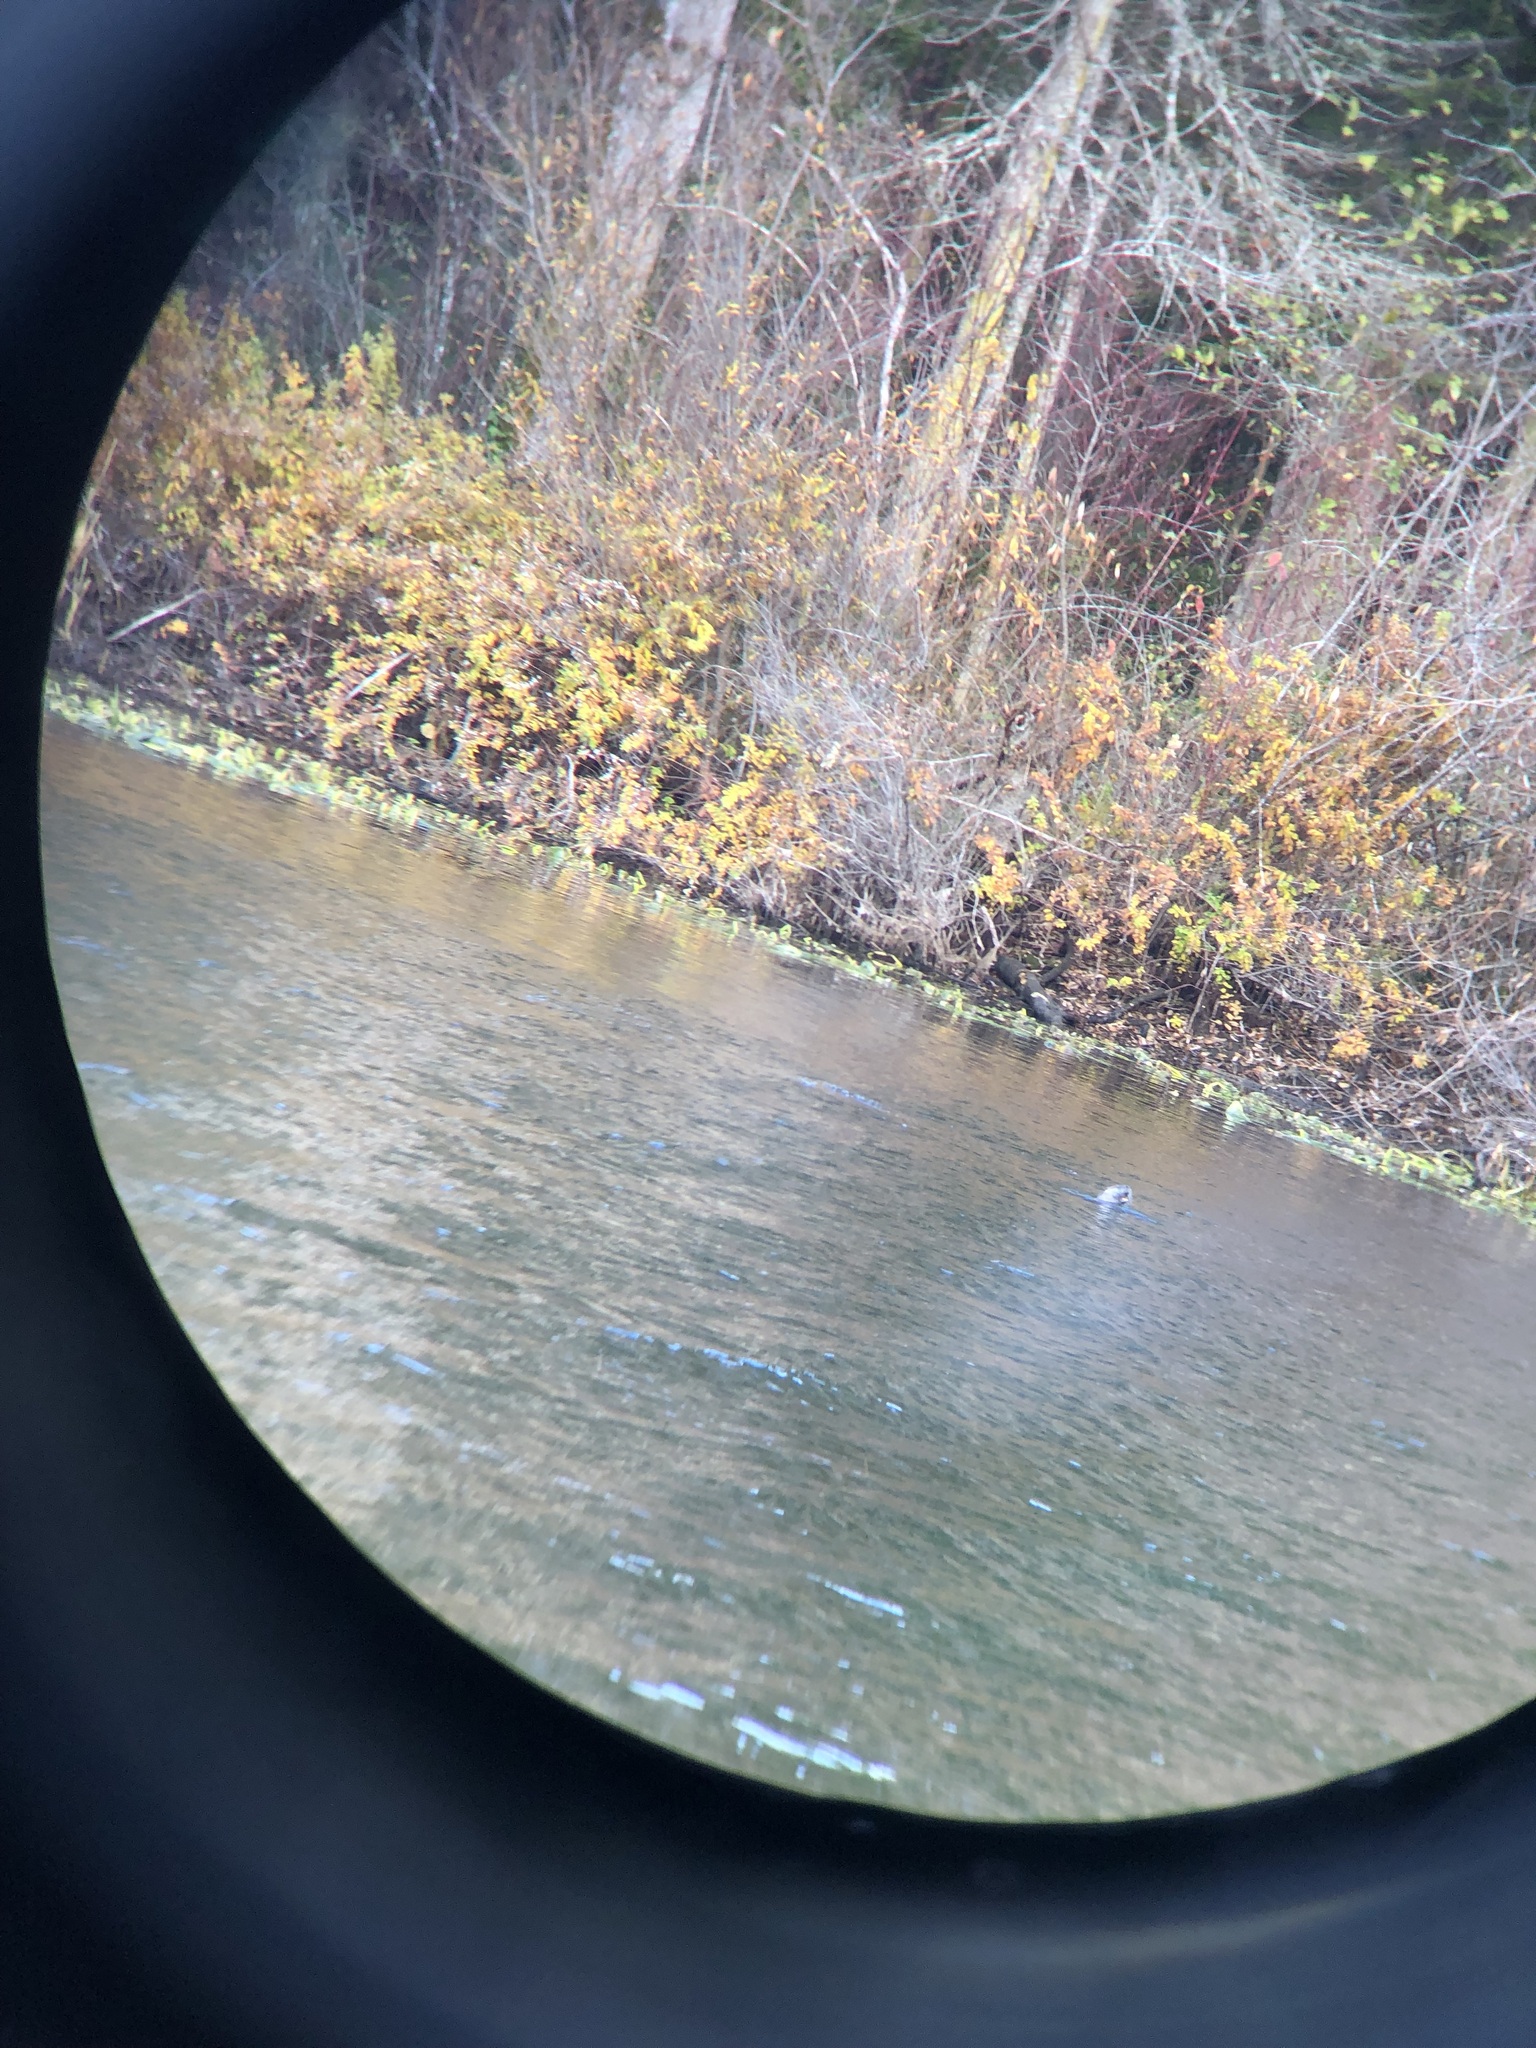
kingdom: Animalia
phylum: Chordata
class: Mammalia
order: Carnivora
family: Mustelidae
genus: Lontra
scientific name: Lontra canadensis
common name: North american river otter
